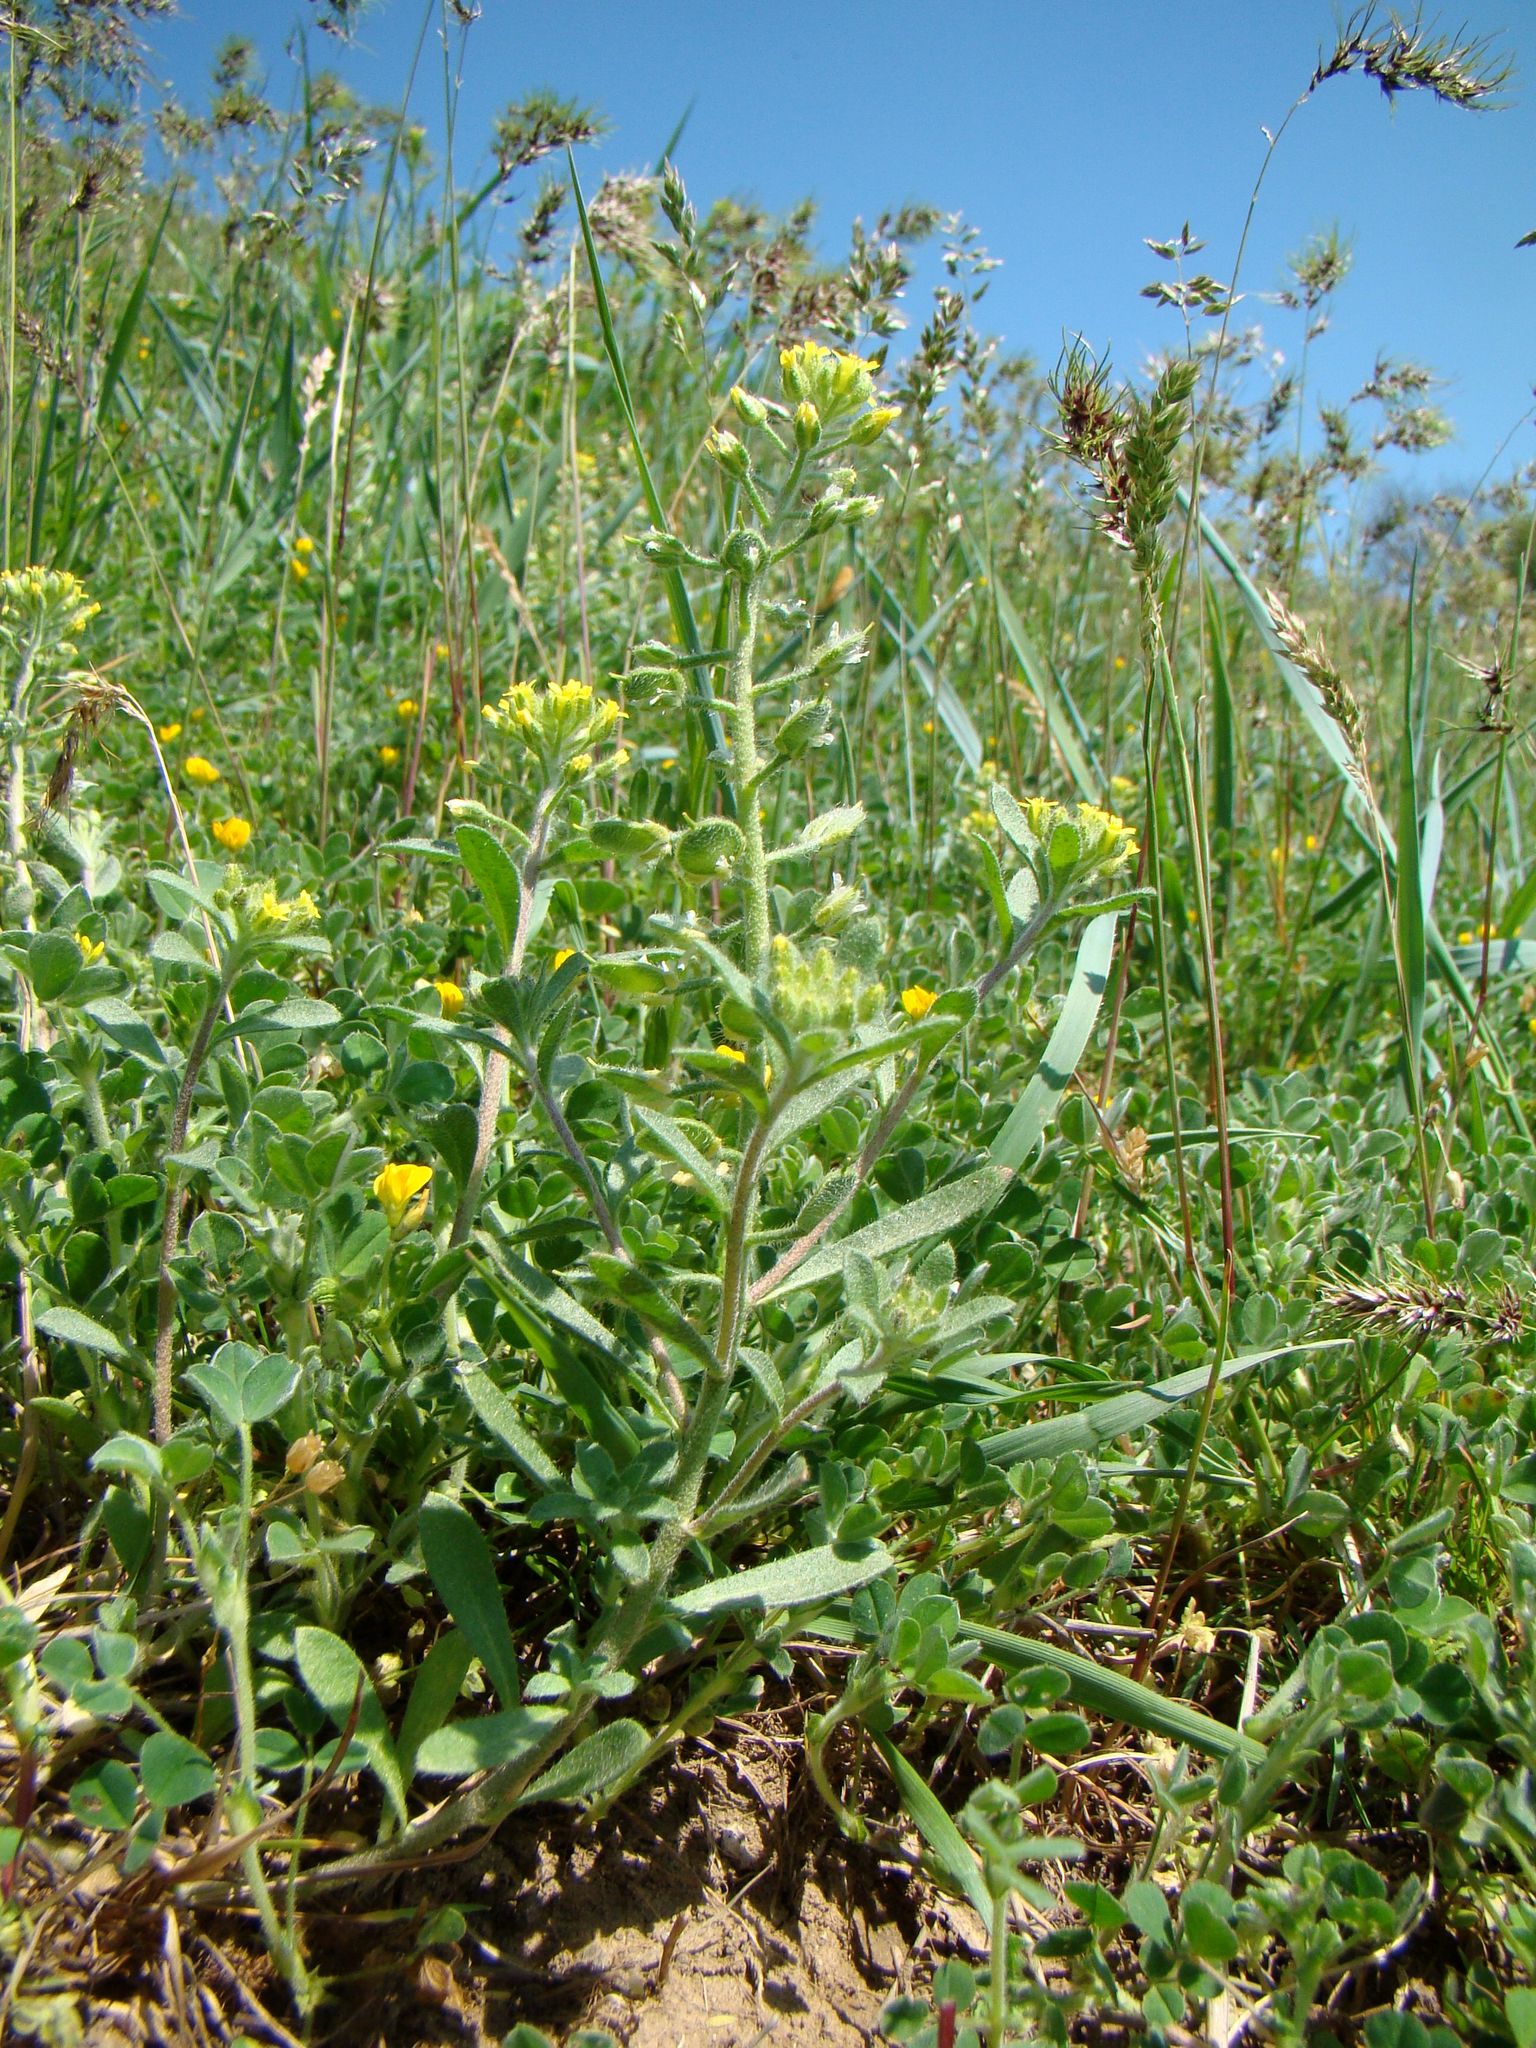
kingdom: Plantae
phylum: Tracheophyta
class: Magnoliopsida
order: Brassicales
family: Brassicaceae
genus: Alyssum
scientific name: Alyssum hirsutum
